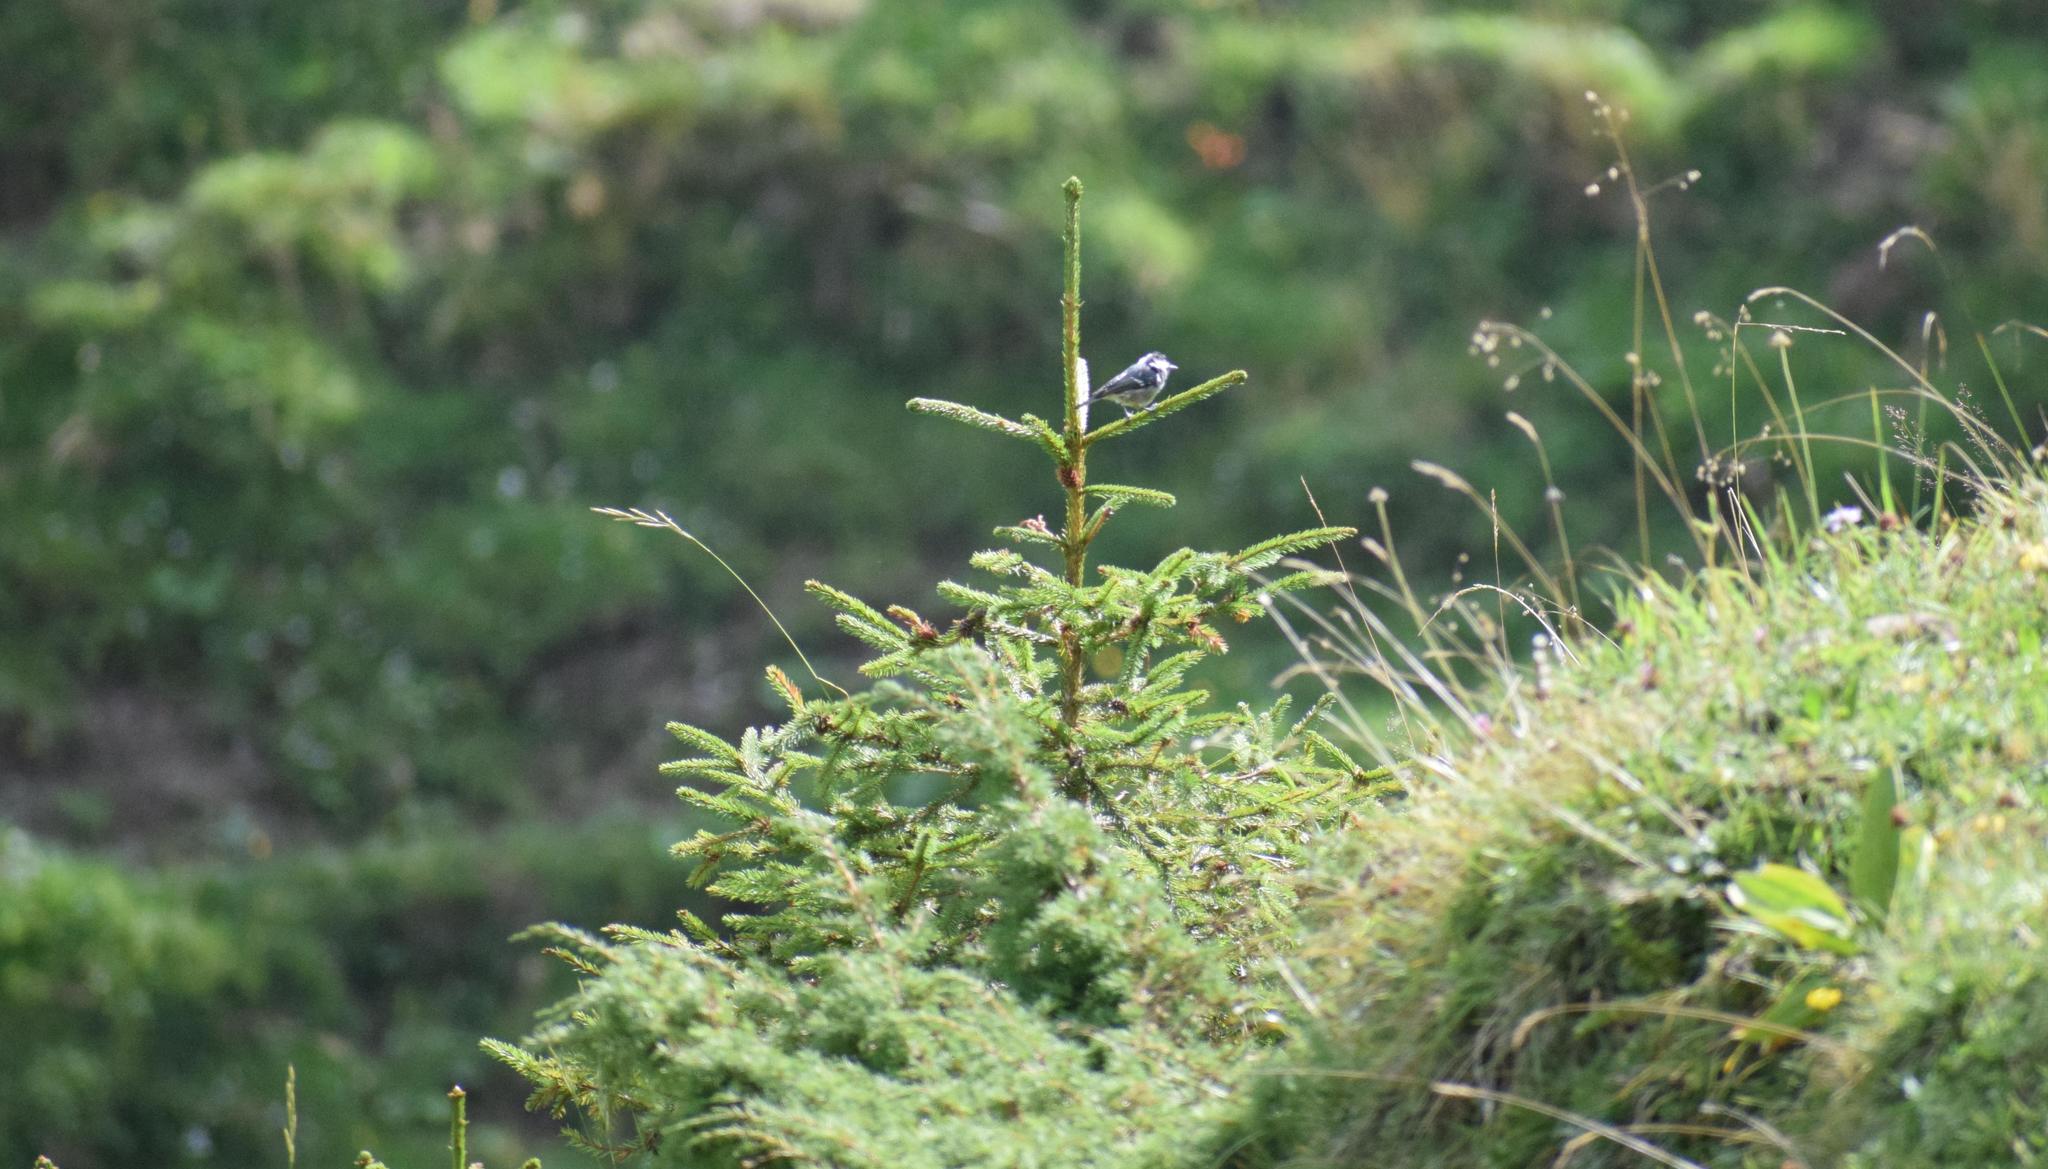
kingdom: Animalia
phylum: Chordata
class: Aves
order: Passeriformes
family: Paridae
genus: Periparus
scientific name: Periparus ater
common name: Coal tit
